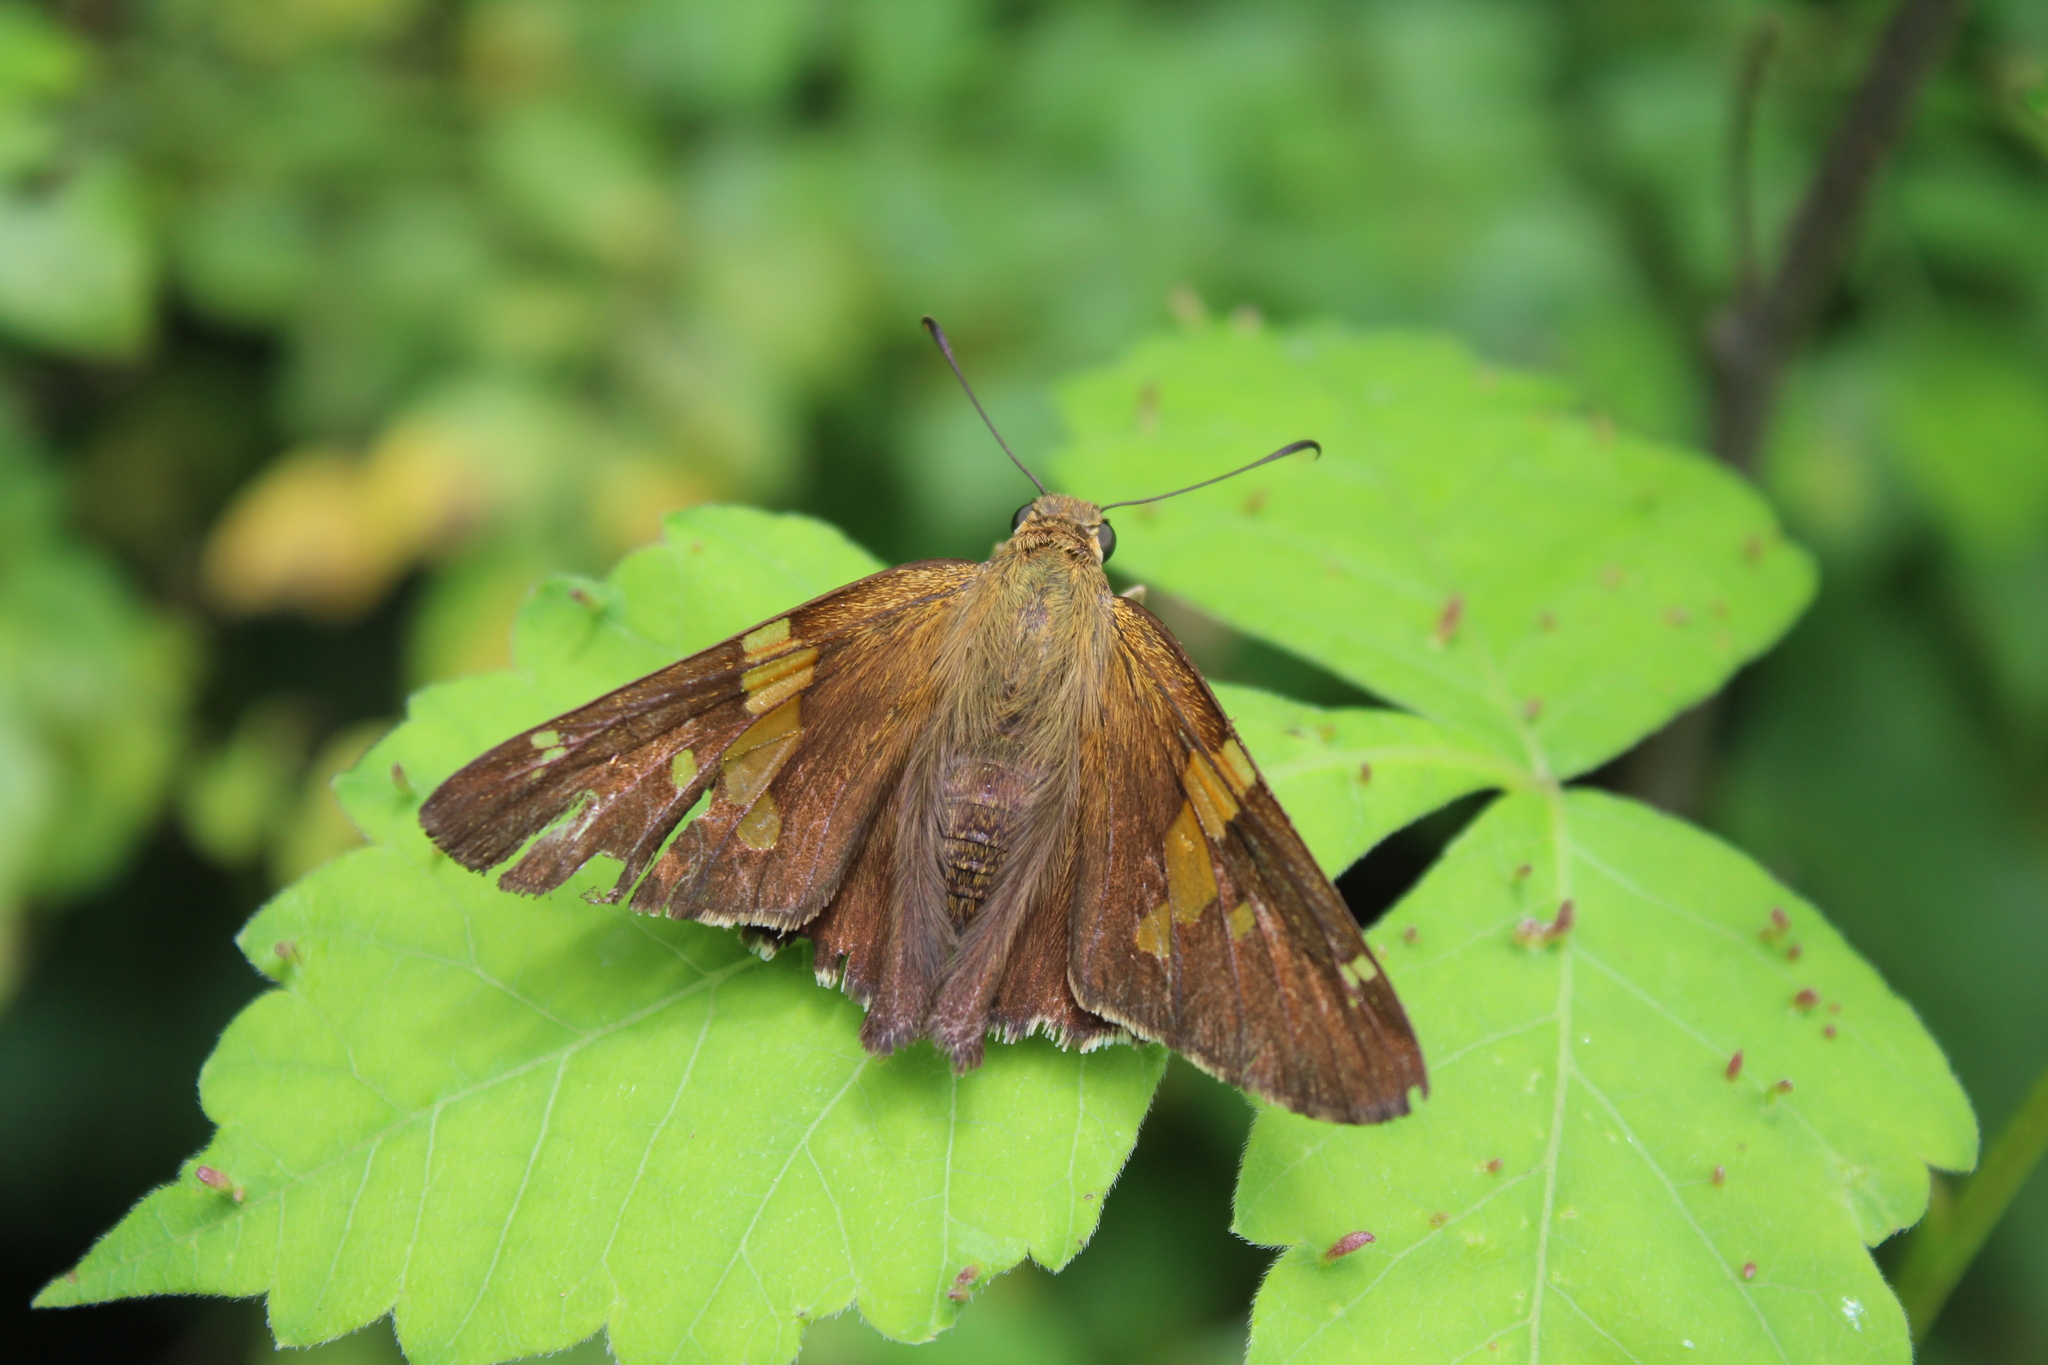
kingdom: Animalia
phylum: Arthropoda
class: Insecta
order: Lepidoptera
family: Hesperiidae
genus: Epargyreus
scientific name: Epargyreus clarus
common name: Silver-spotted skipper
